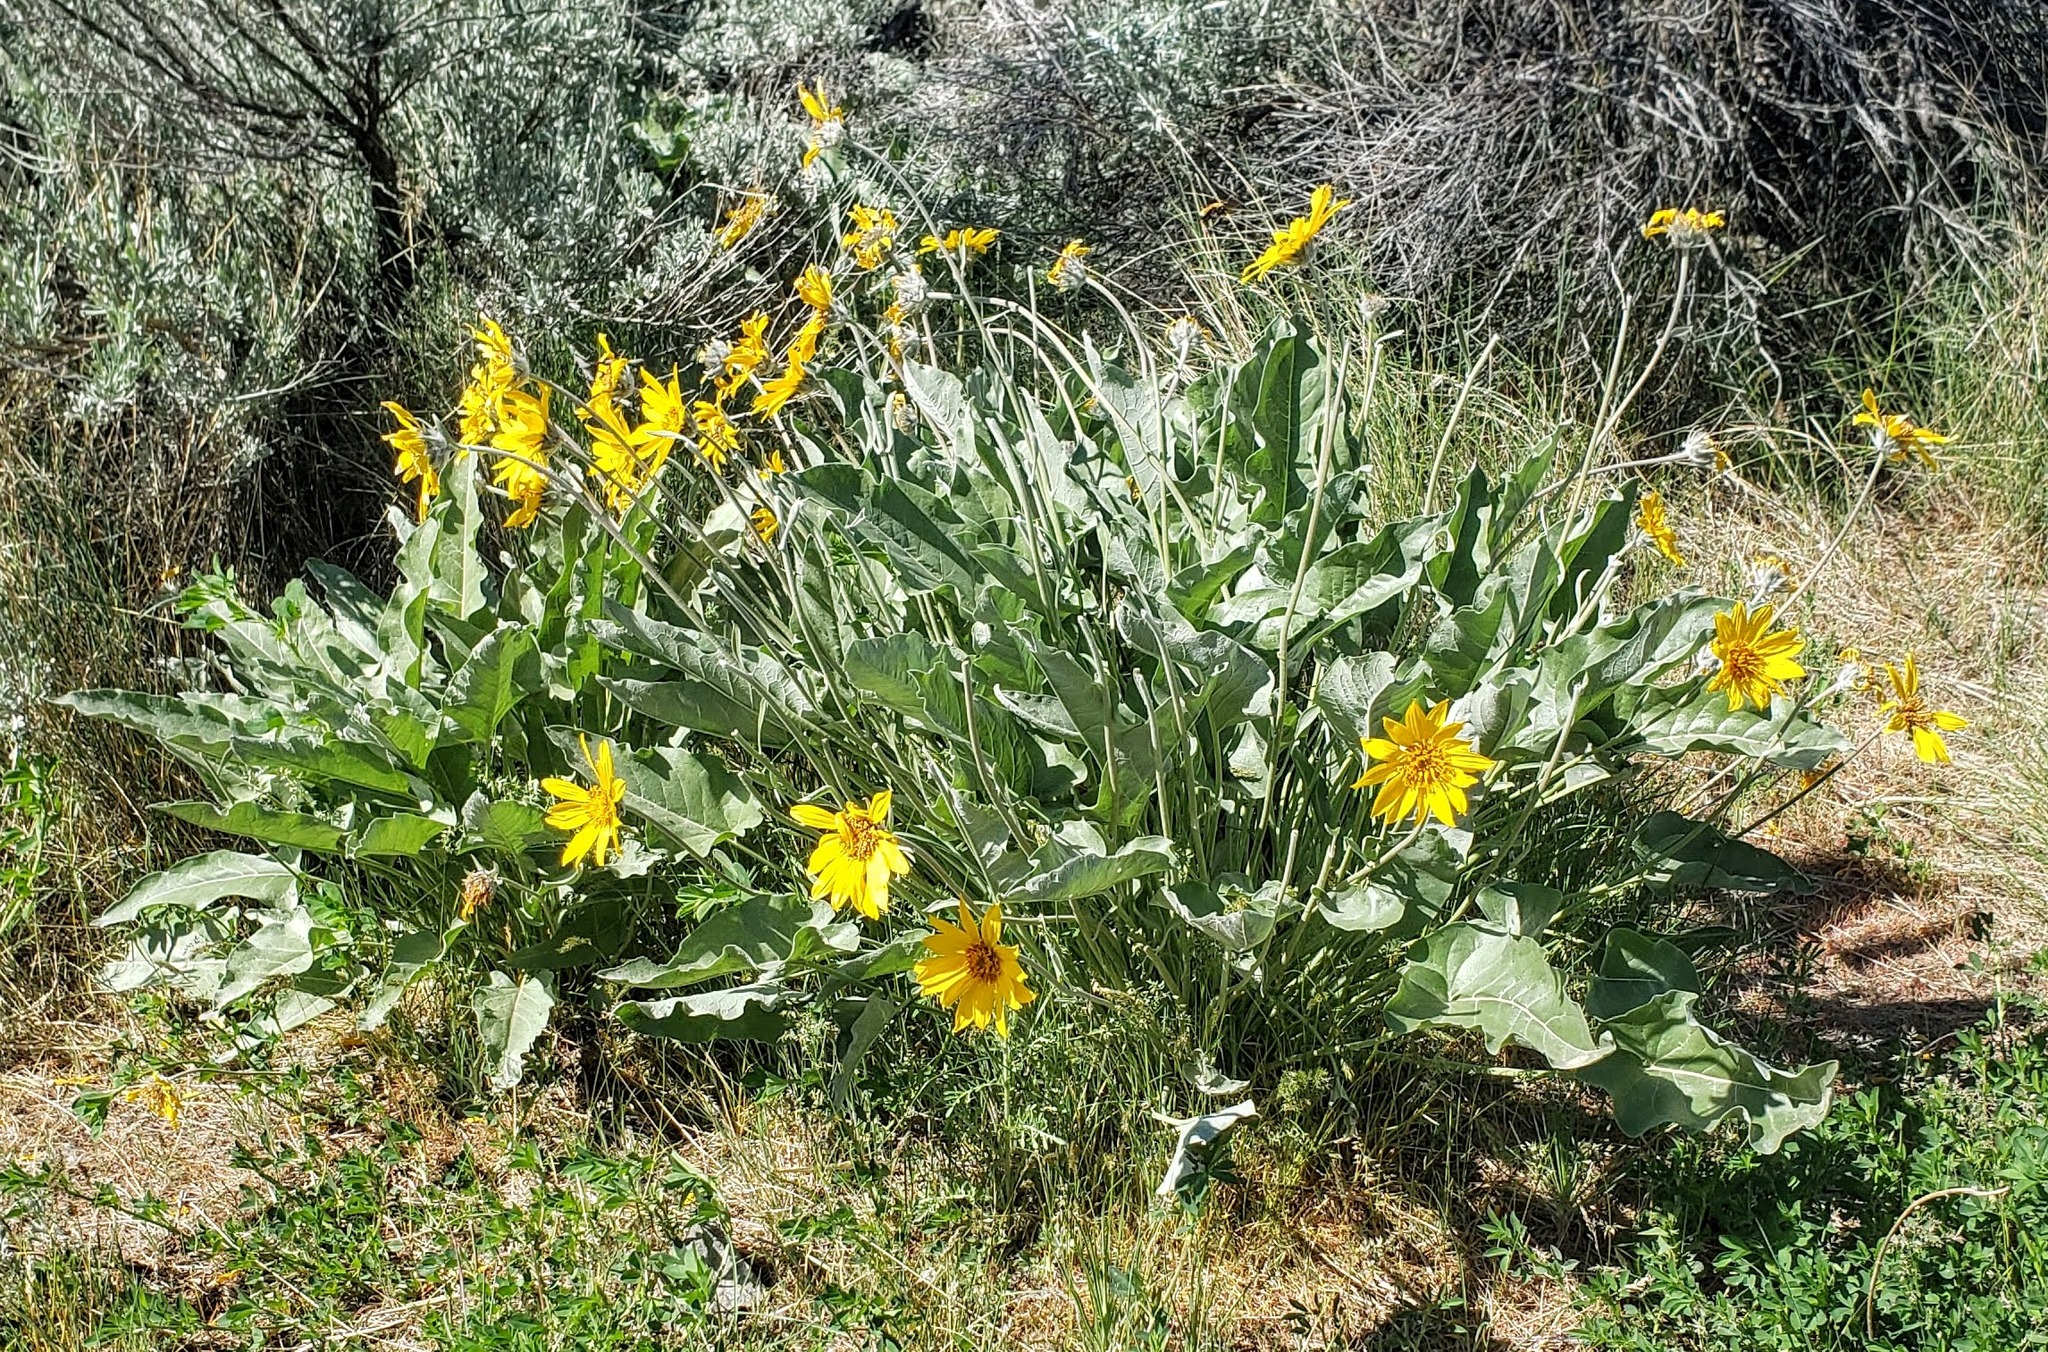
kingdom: Plantae
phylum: Tracheophyta
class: Magnoliopsida
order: Asterales
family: Asteraceae
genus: Wyethia
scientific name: Wyethia sagittata
